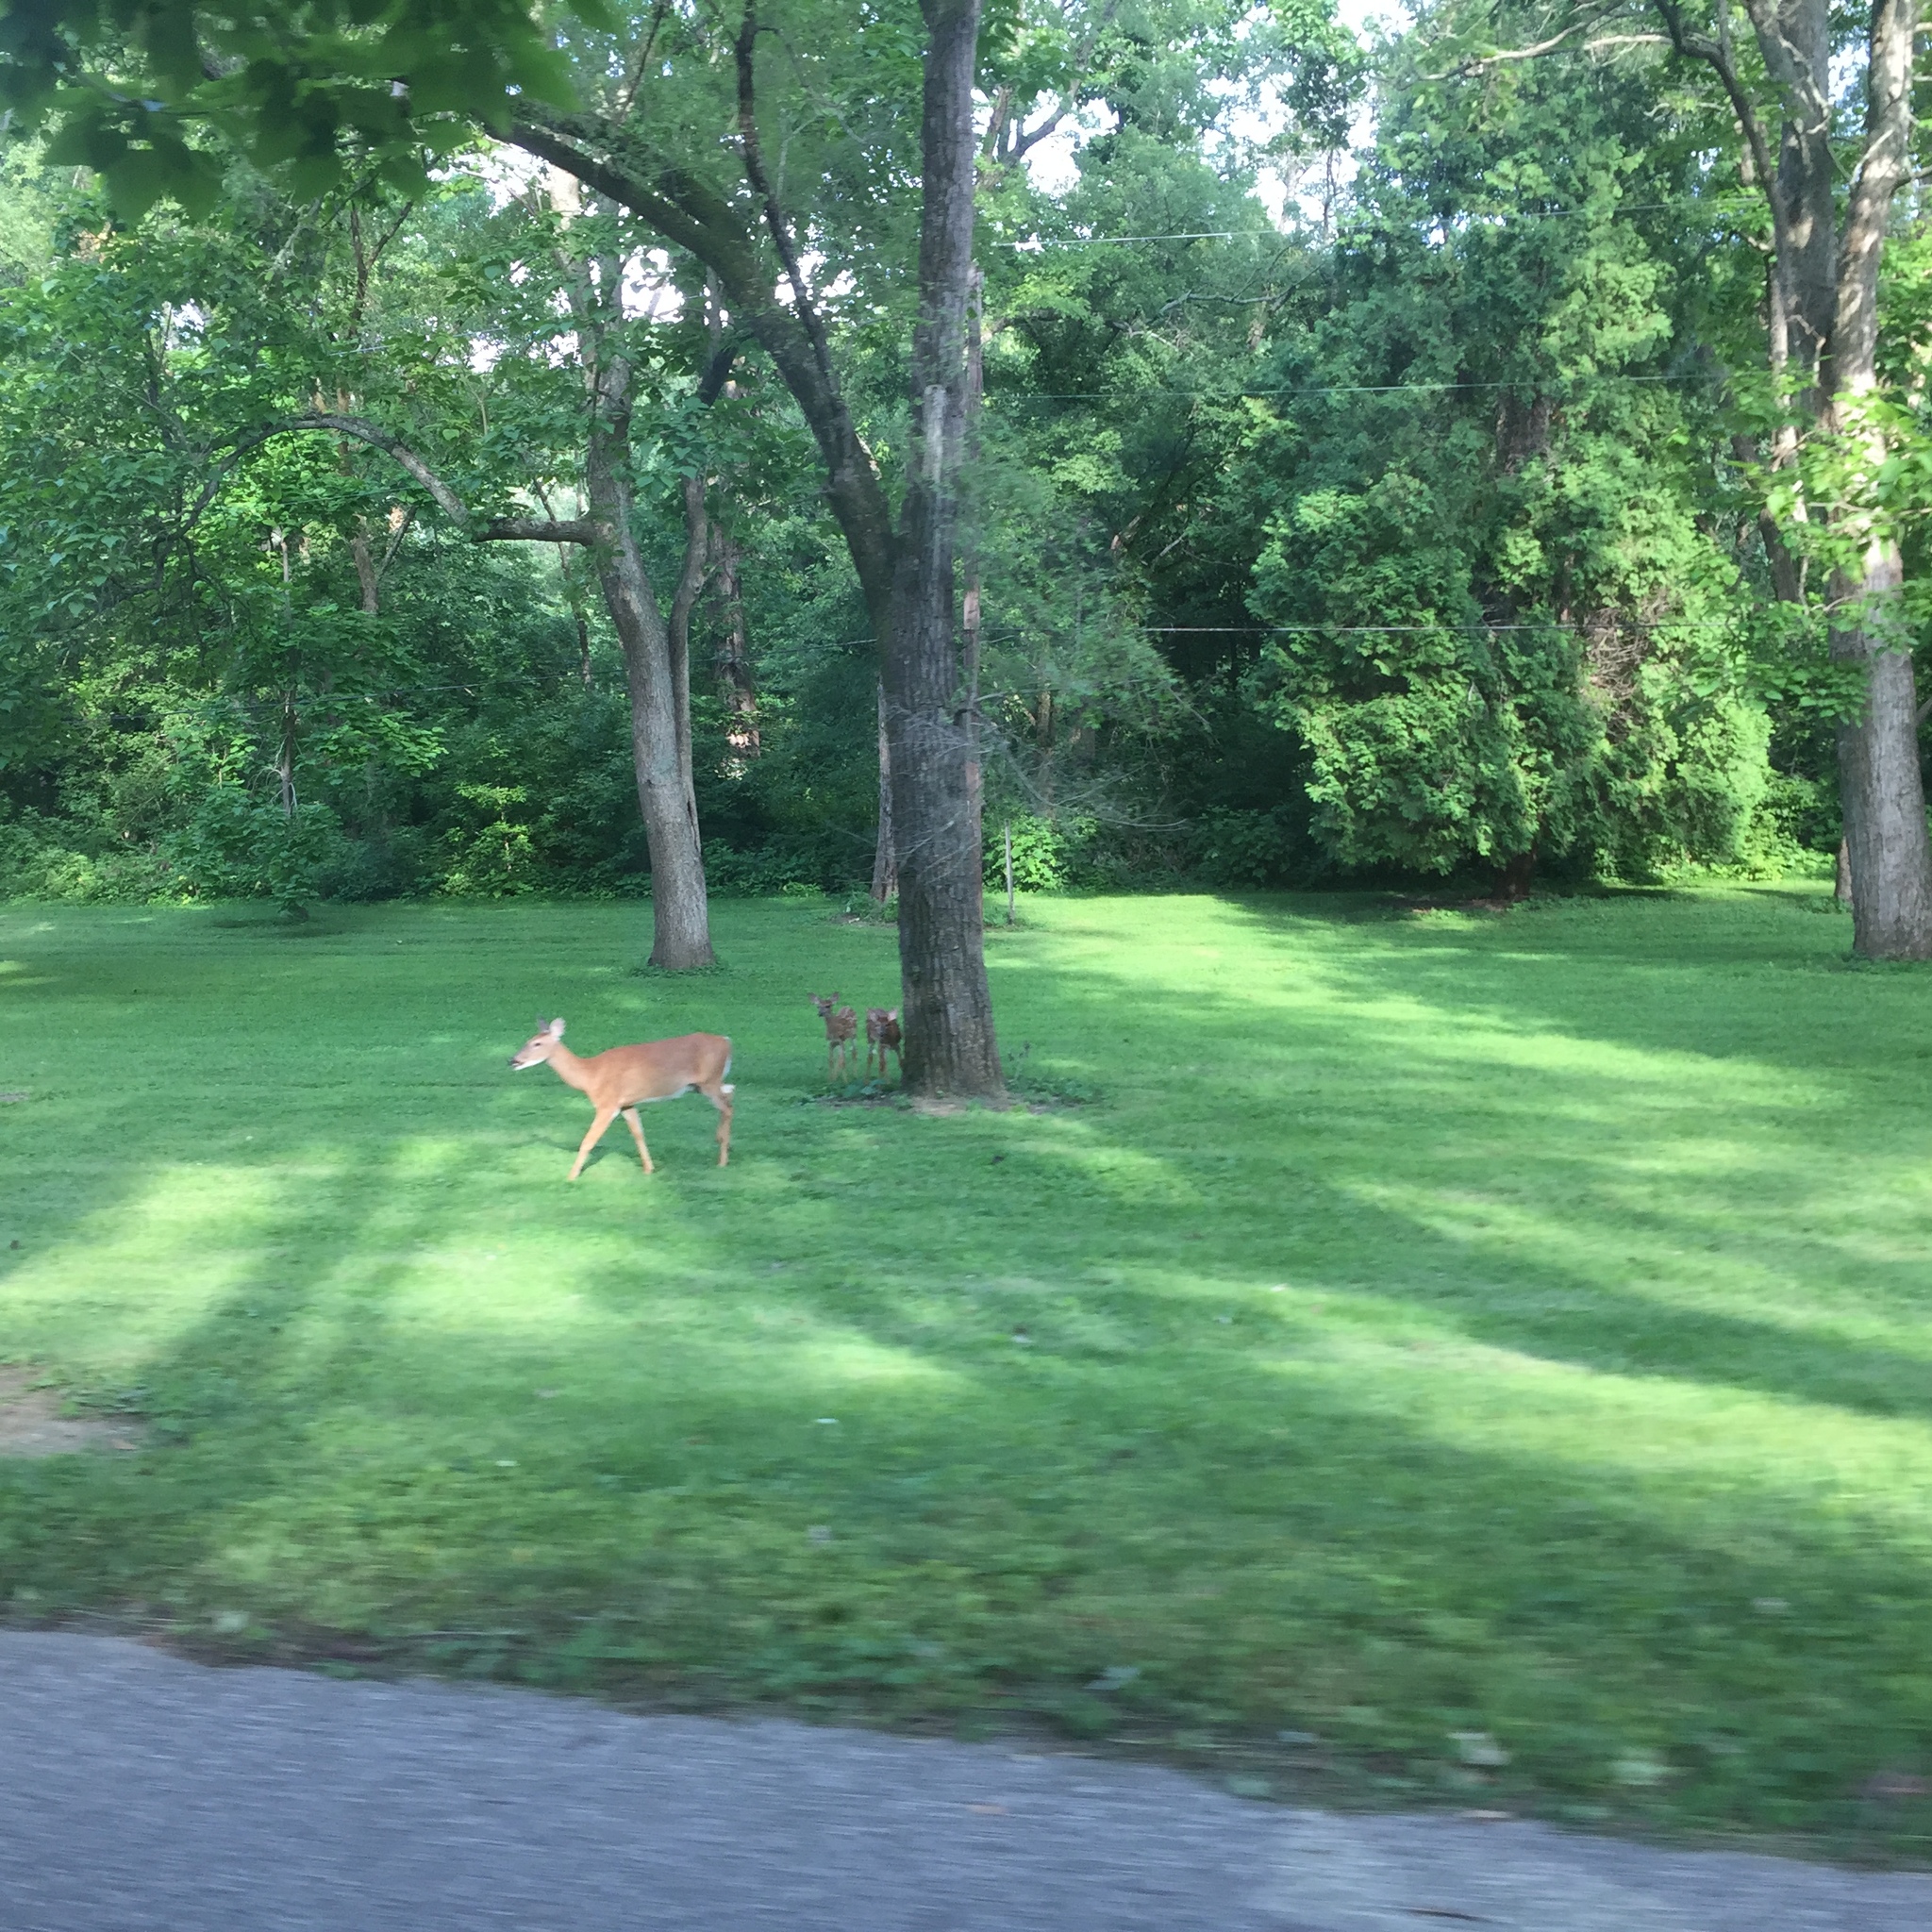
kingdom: Animalia
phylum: Chordata
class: Mammalia
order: Artiodactyla
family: Cervidae
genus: Odocoileus
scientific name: Odocoileus virginianus
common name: White-tailed deer
